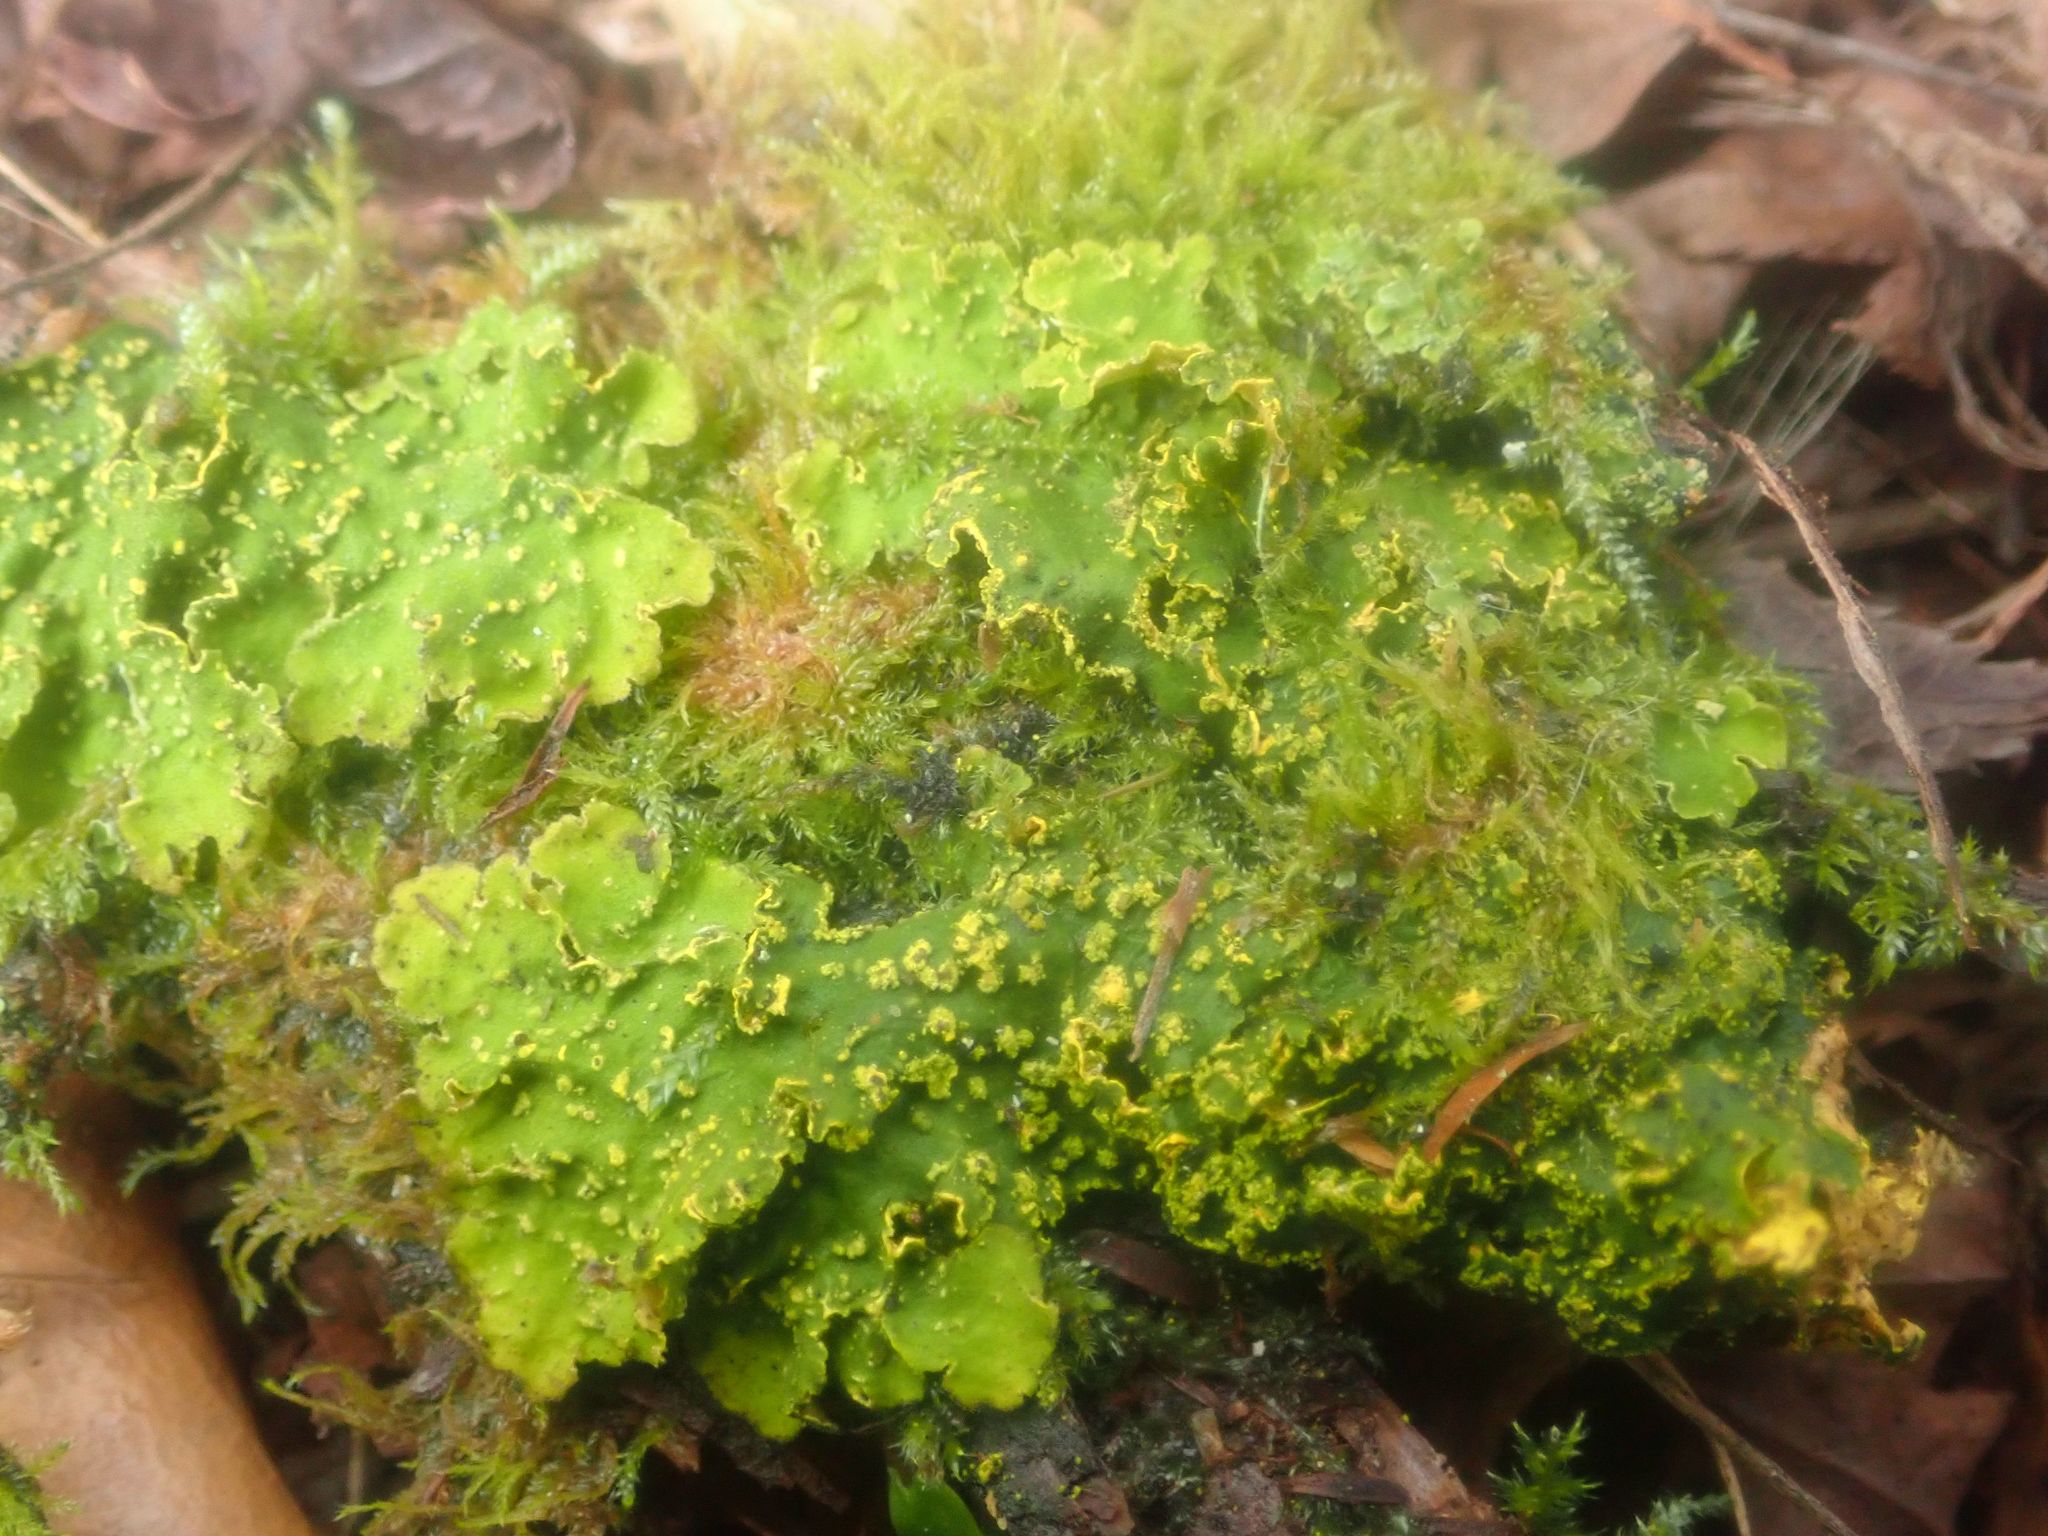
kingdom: Fungi
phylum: Ascomycota
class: Lecanoromycetes
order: Peltigerales
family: Lobariaceae
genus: Pseudocyphellaria
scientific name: Pseudocyphellaria rubella
